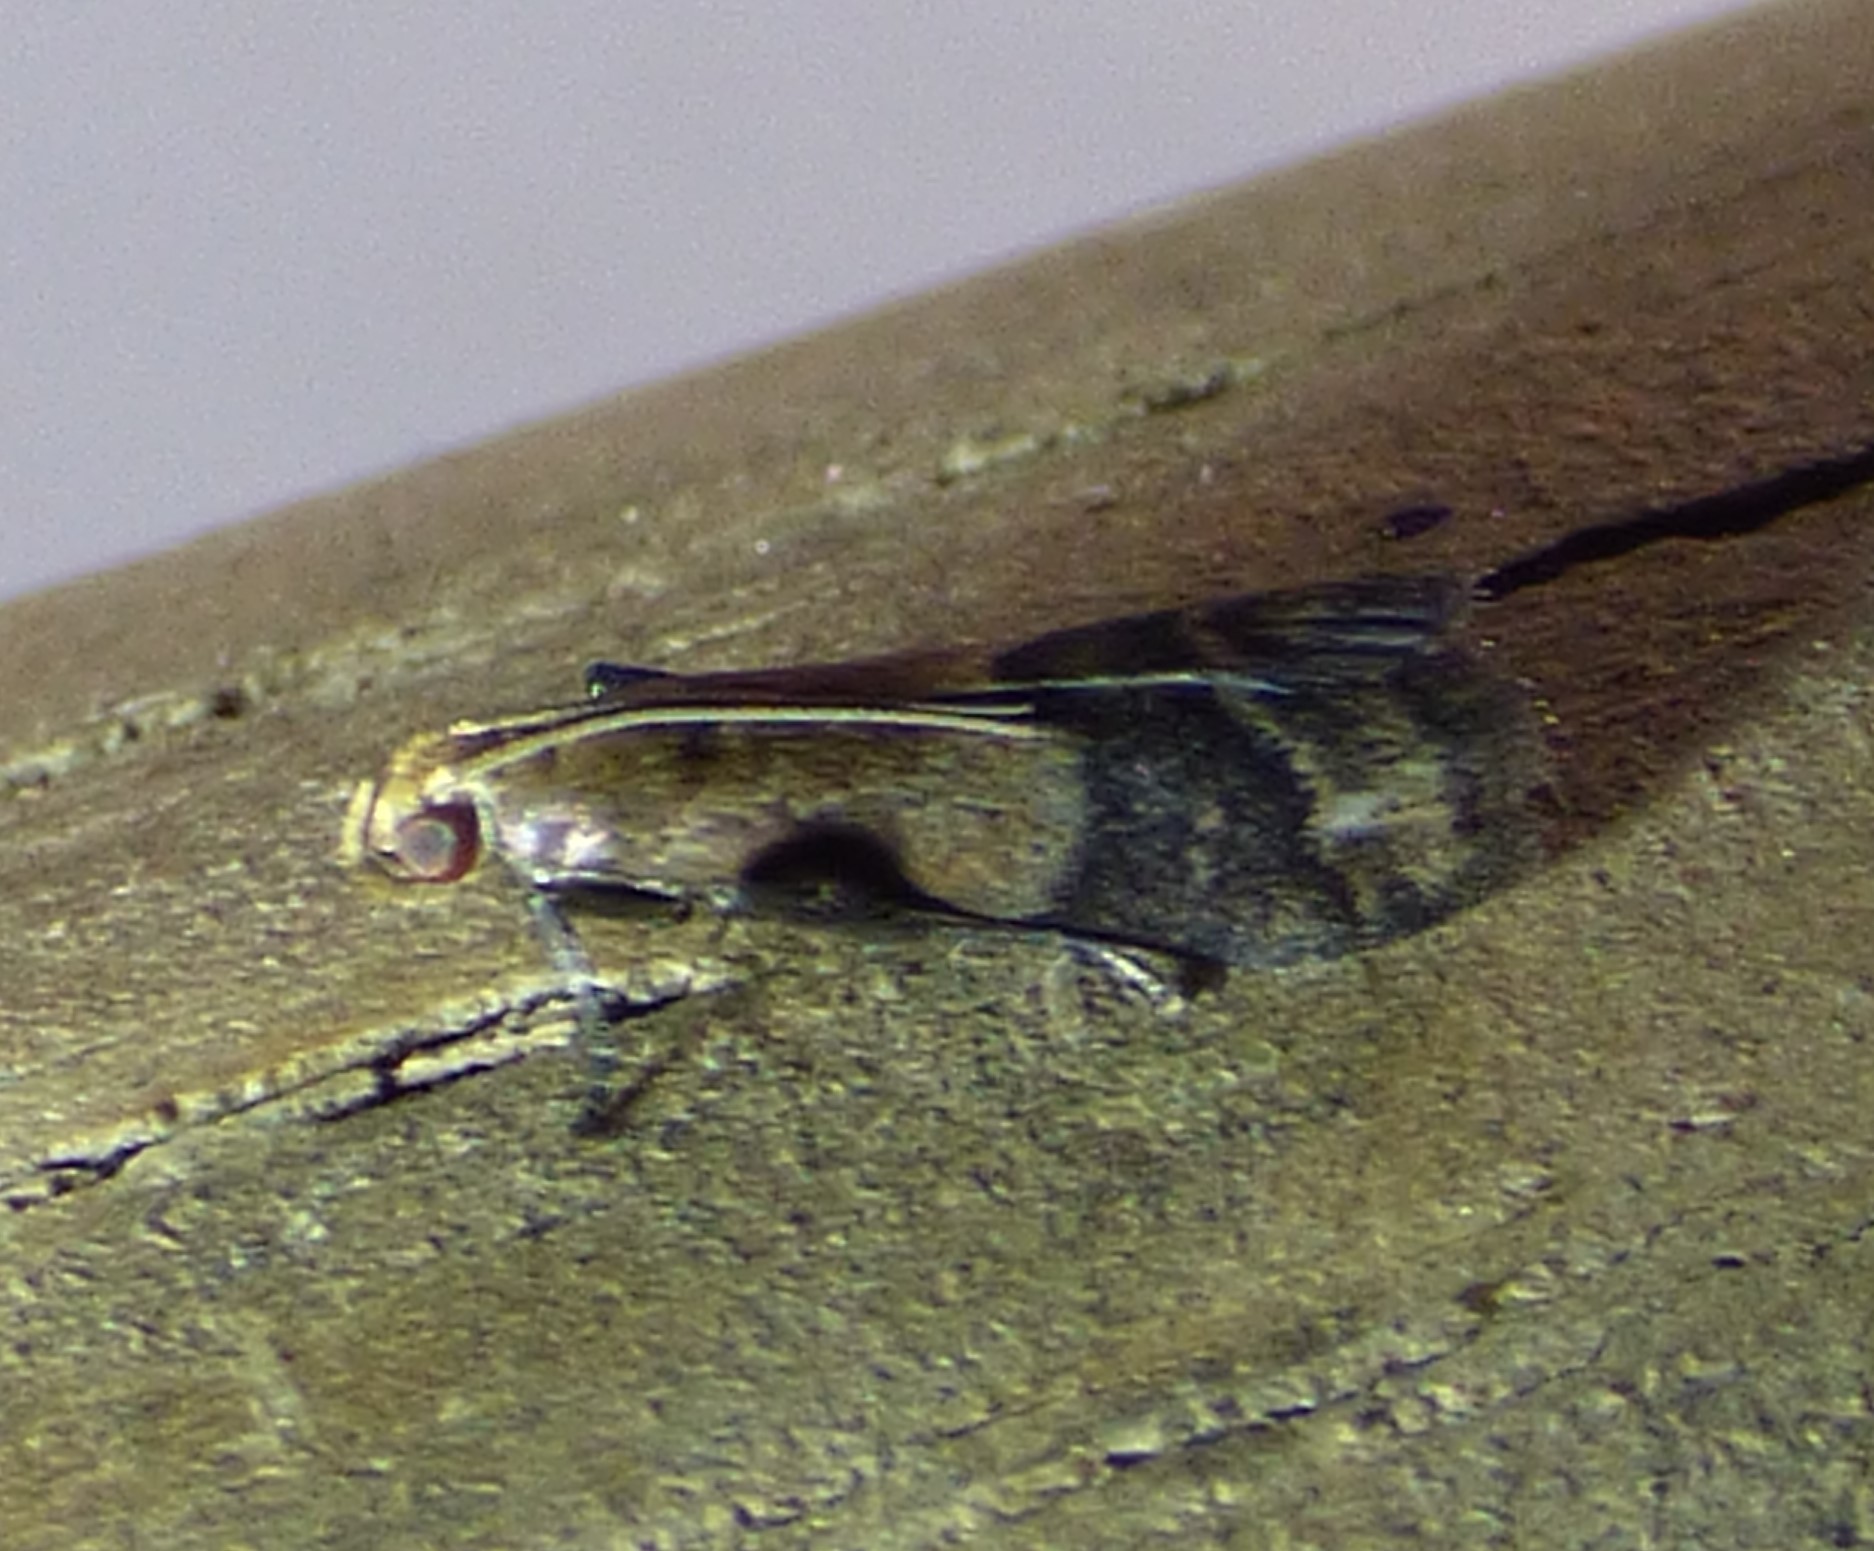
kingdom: Animalia
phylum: Arthropoda
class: Insecta
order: Lepidoptera
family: Pyralidae
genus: Eulogia
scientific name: Eulogia ochrifrontella
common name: Broad-banded eulogia moth
